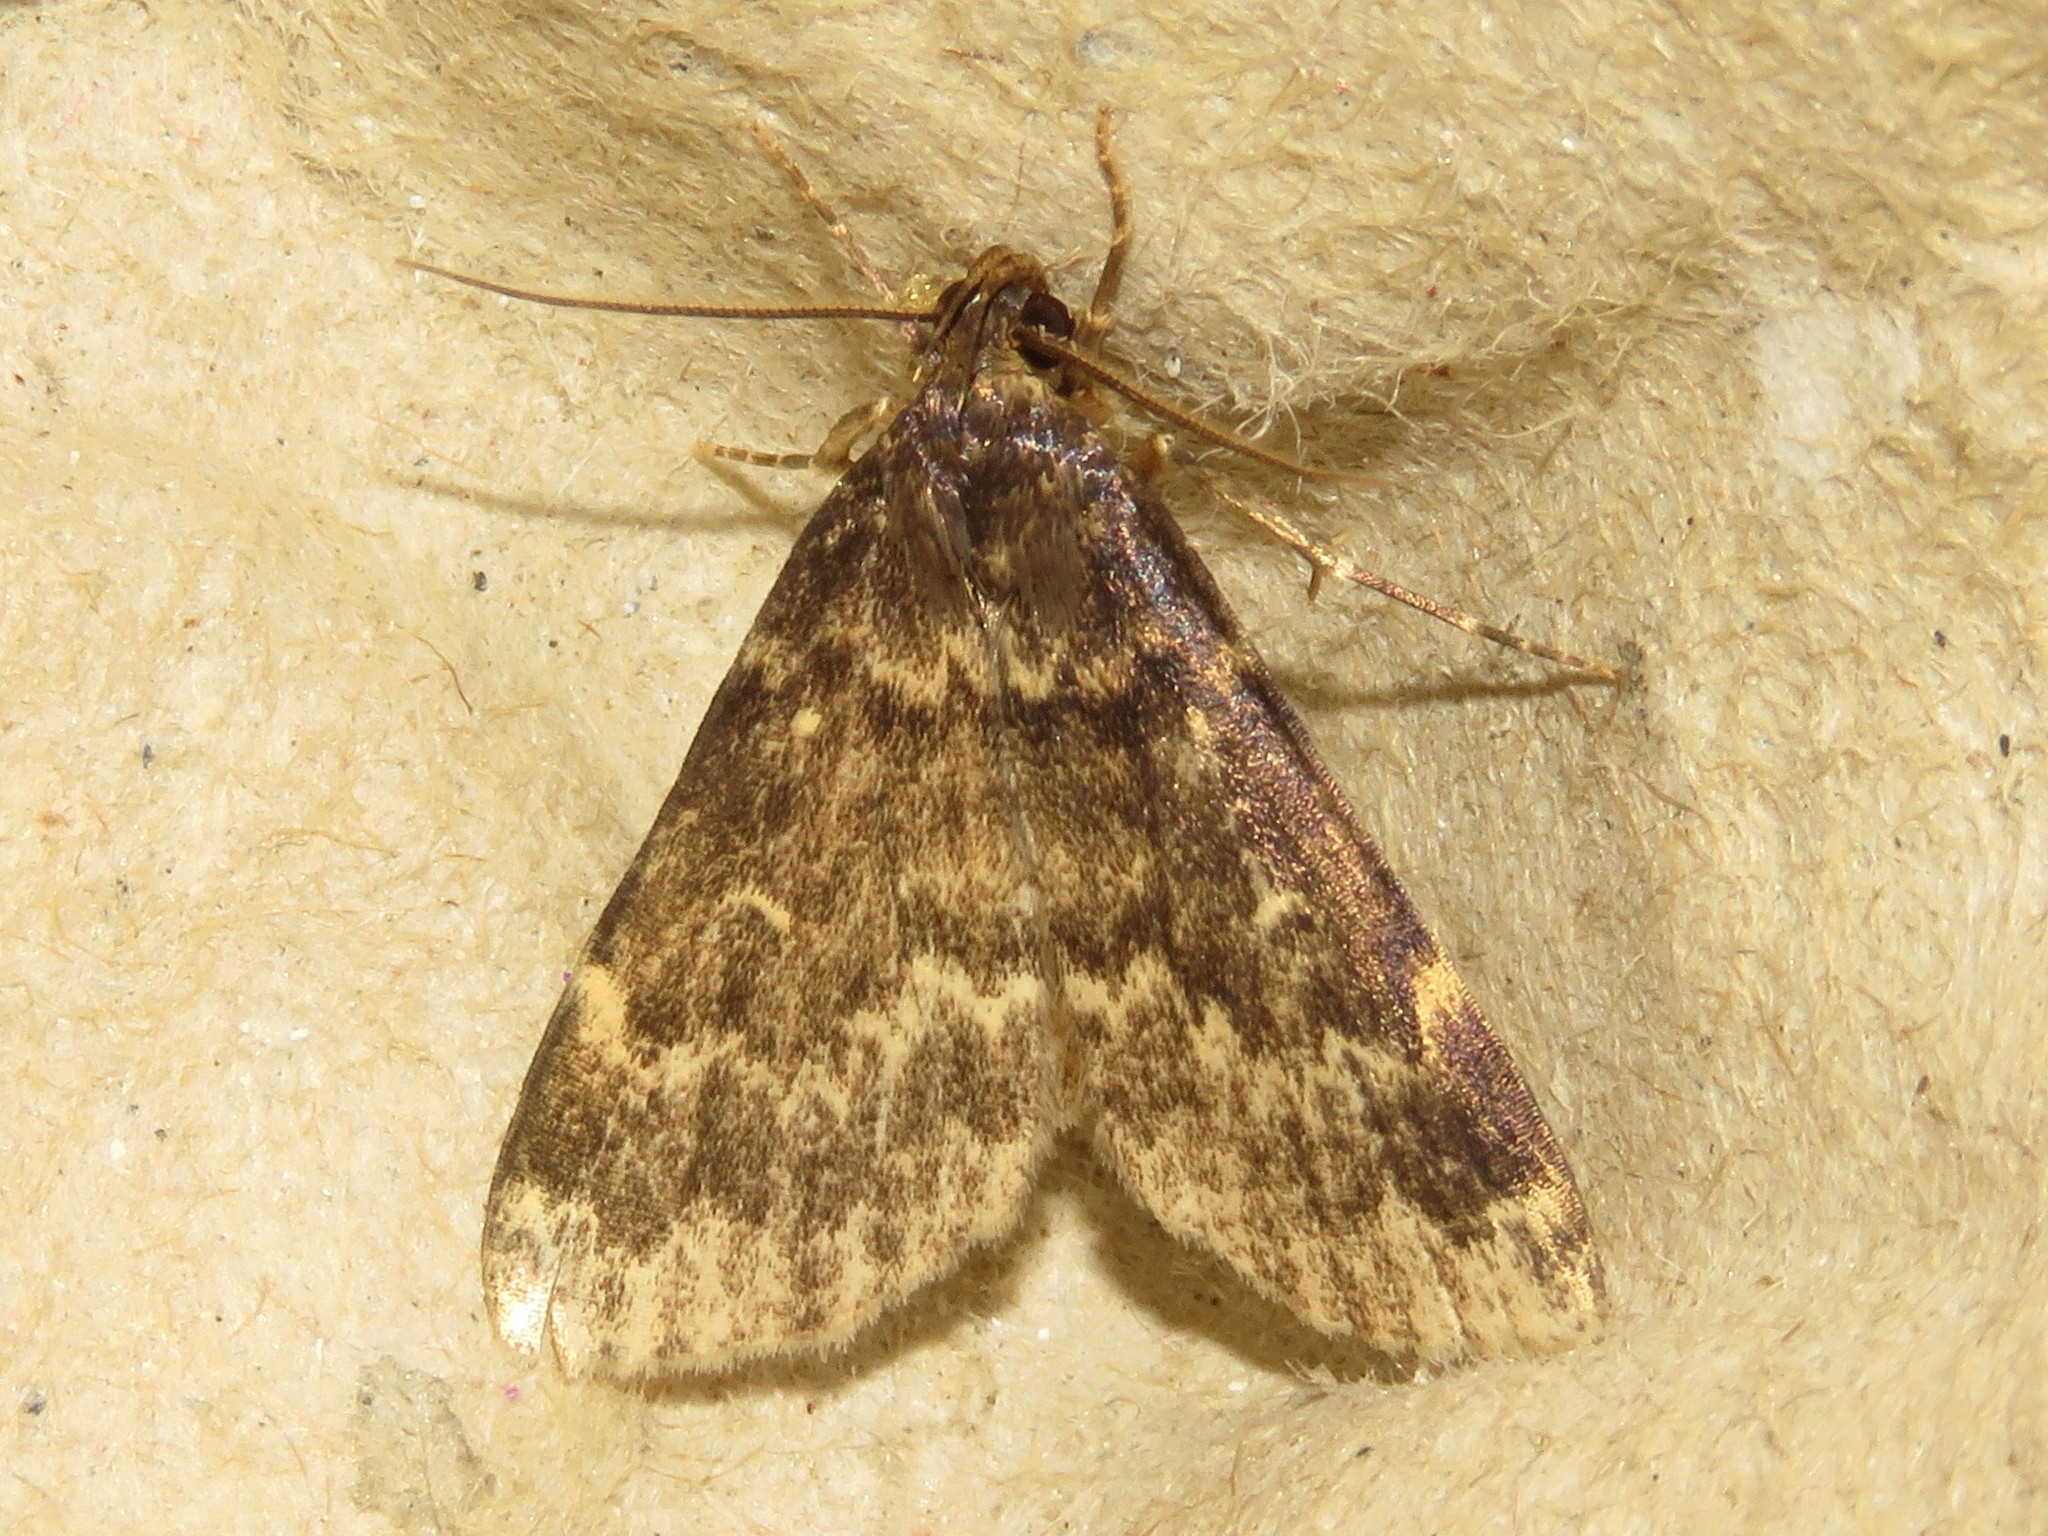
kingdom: Animalia
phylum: Arthropoda
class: Insecta
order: Lepidoptera
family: Erebidae
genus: Idia
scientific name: Idia lubricalis
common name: Twin-striped tabby
